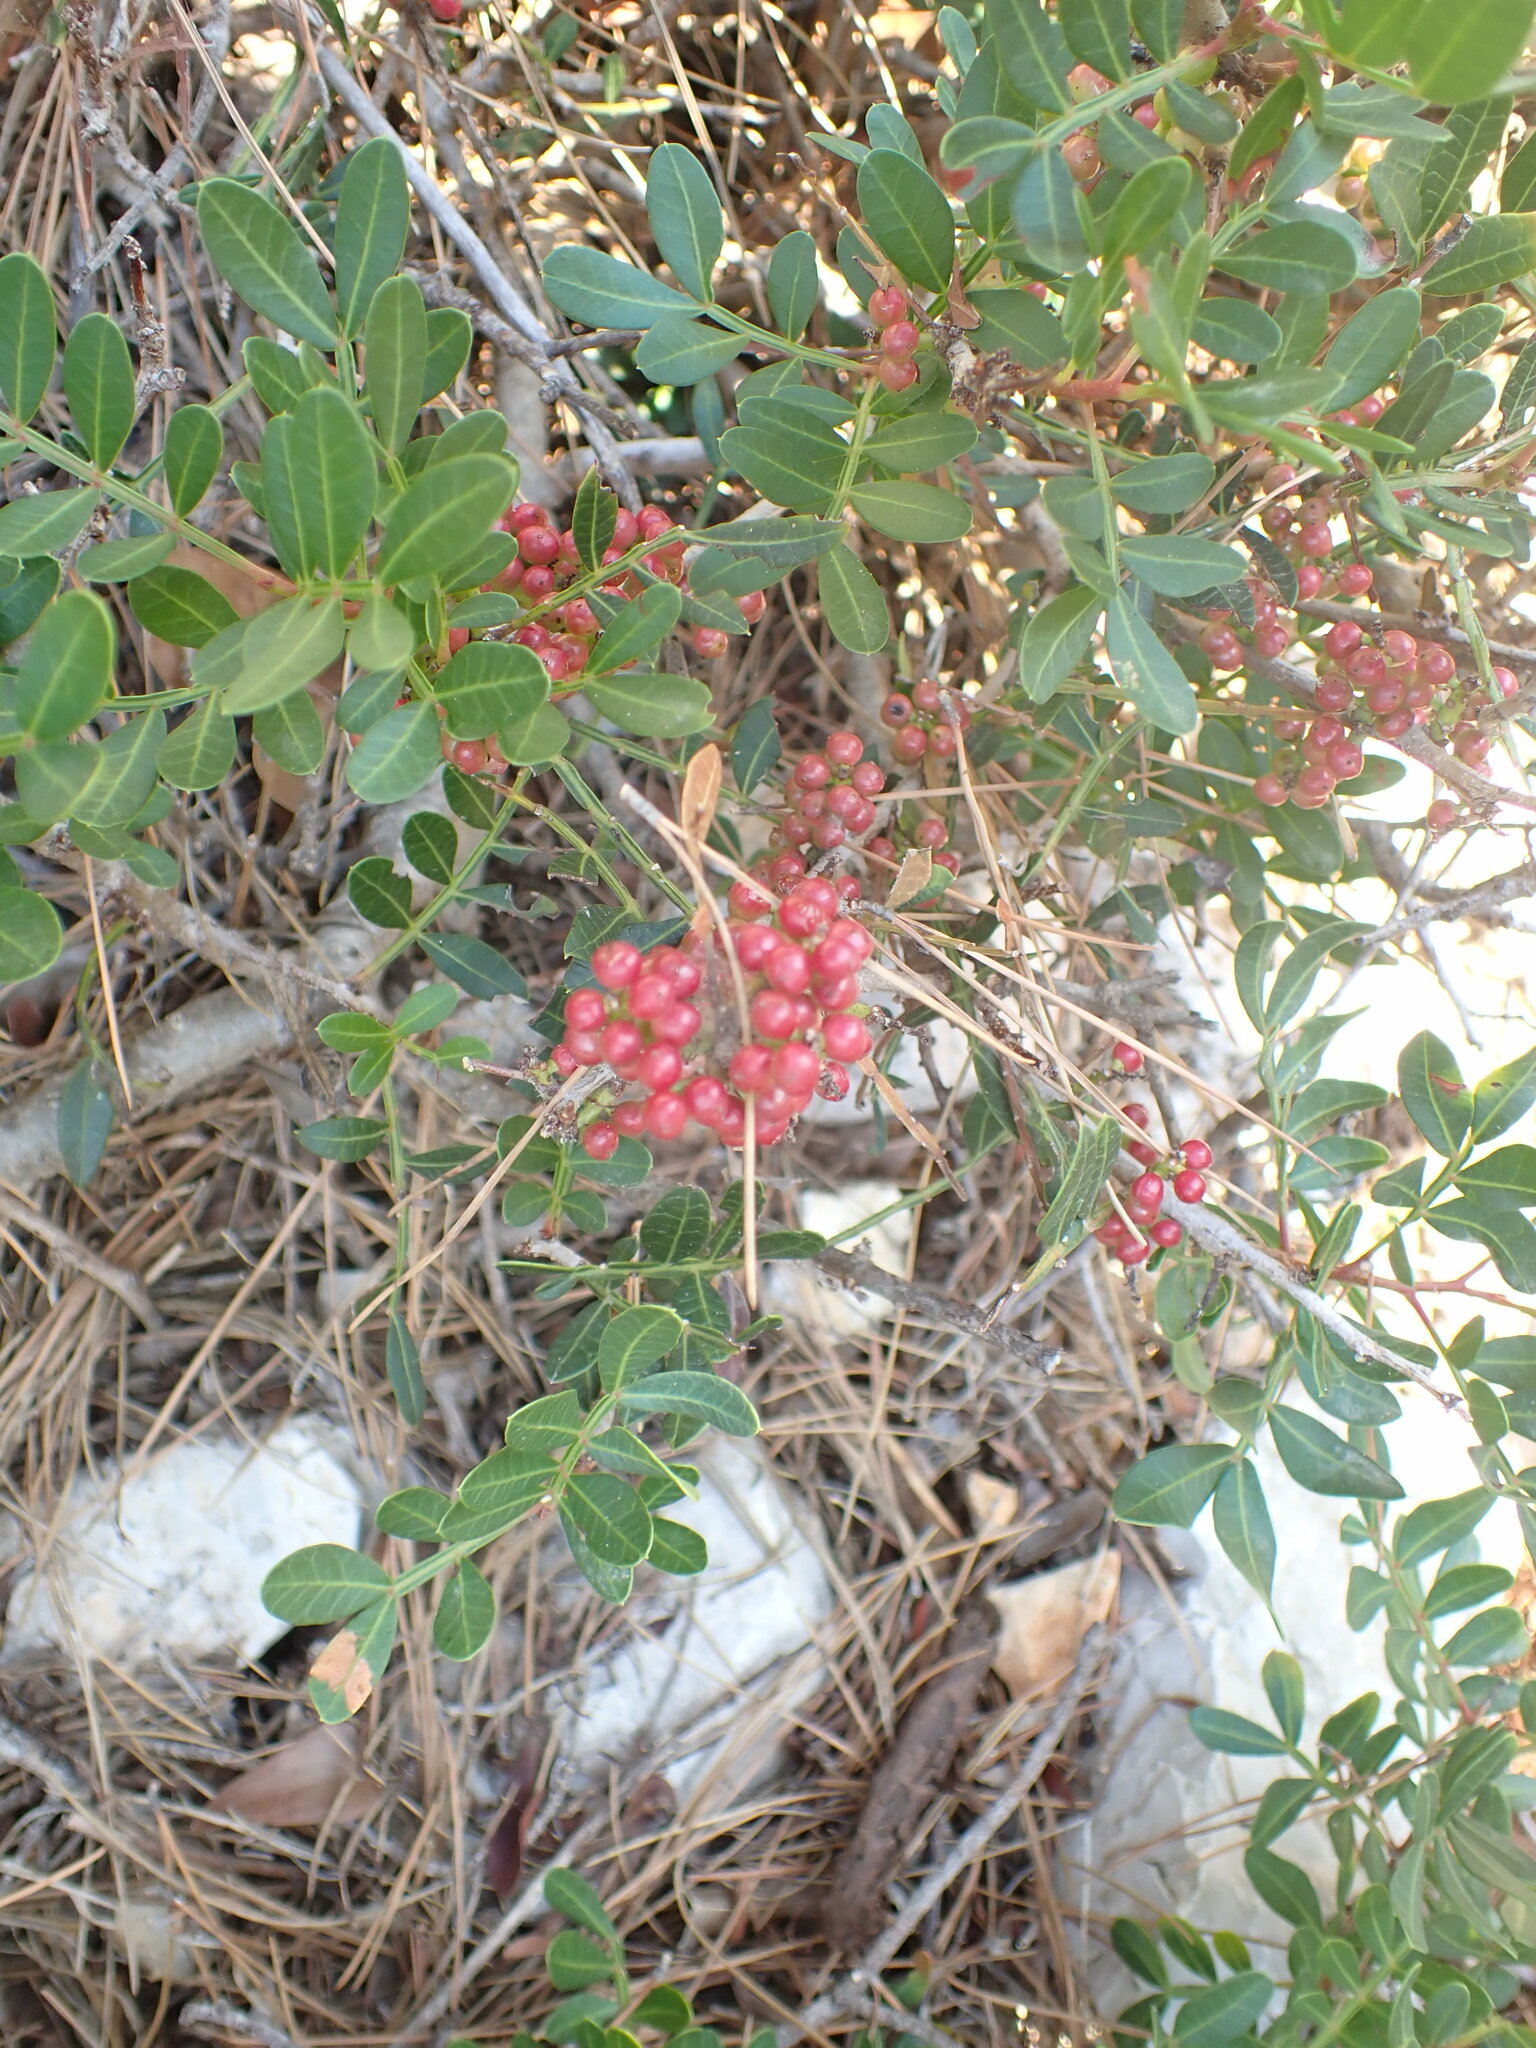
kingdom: Plantae
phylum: Tracheophyta
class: Magnoliopsida
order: Sapindales
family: Anacardiaceae
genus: Pistacia
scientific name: Pistacia lentiscus
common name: Lentisk
